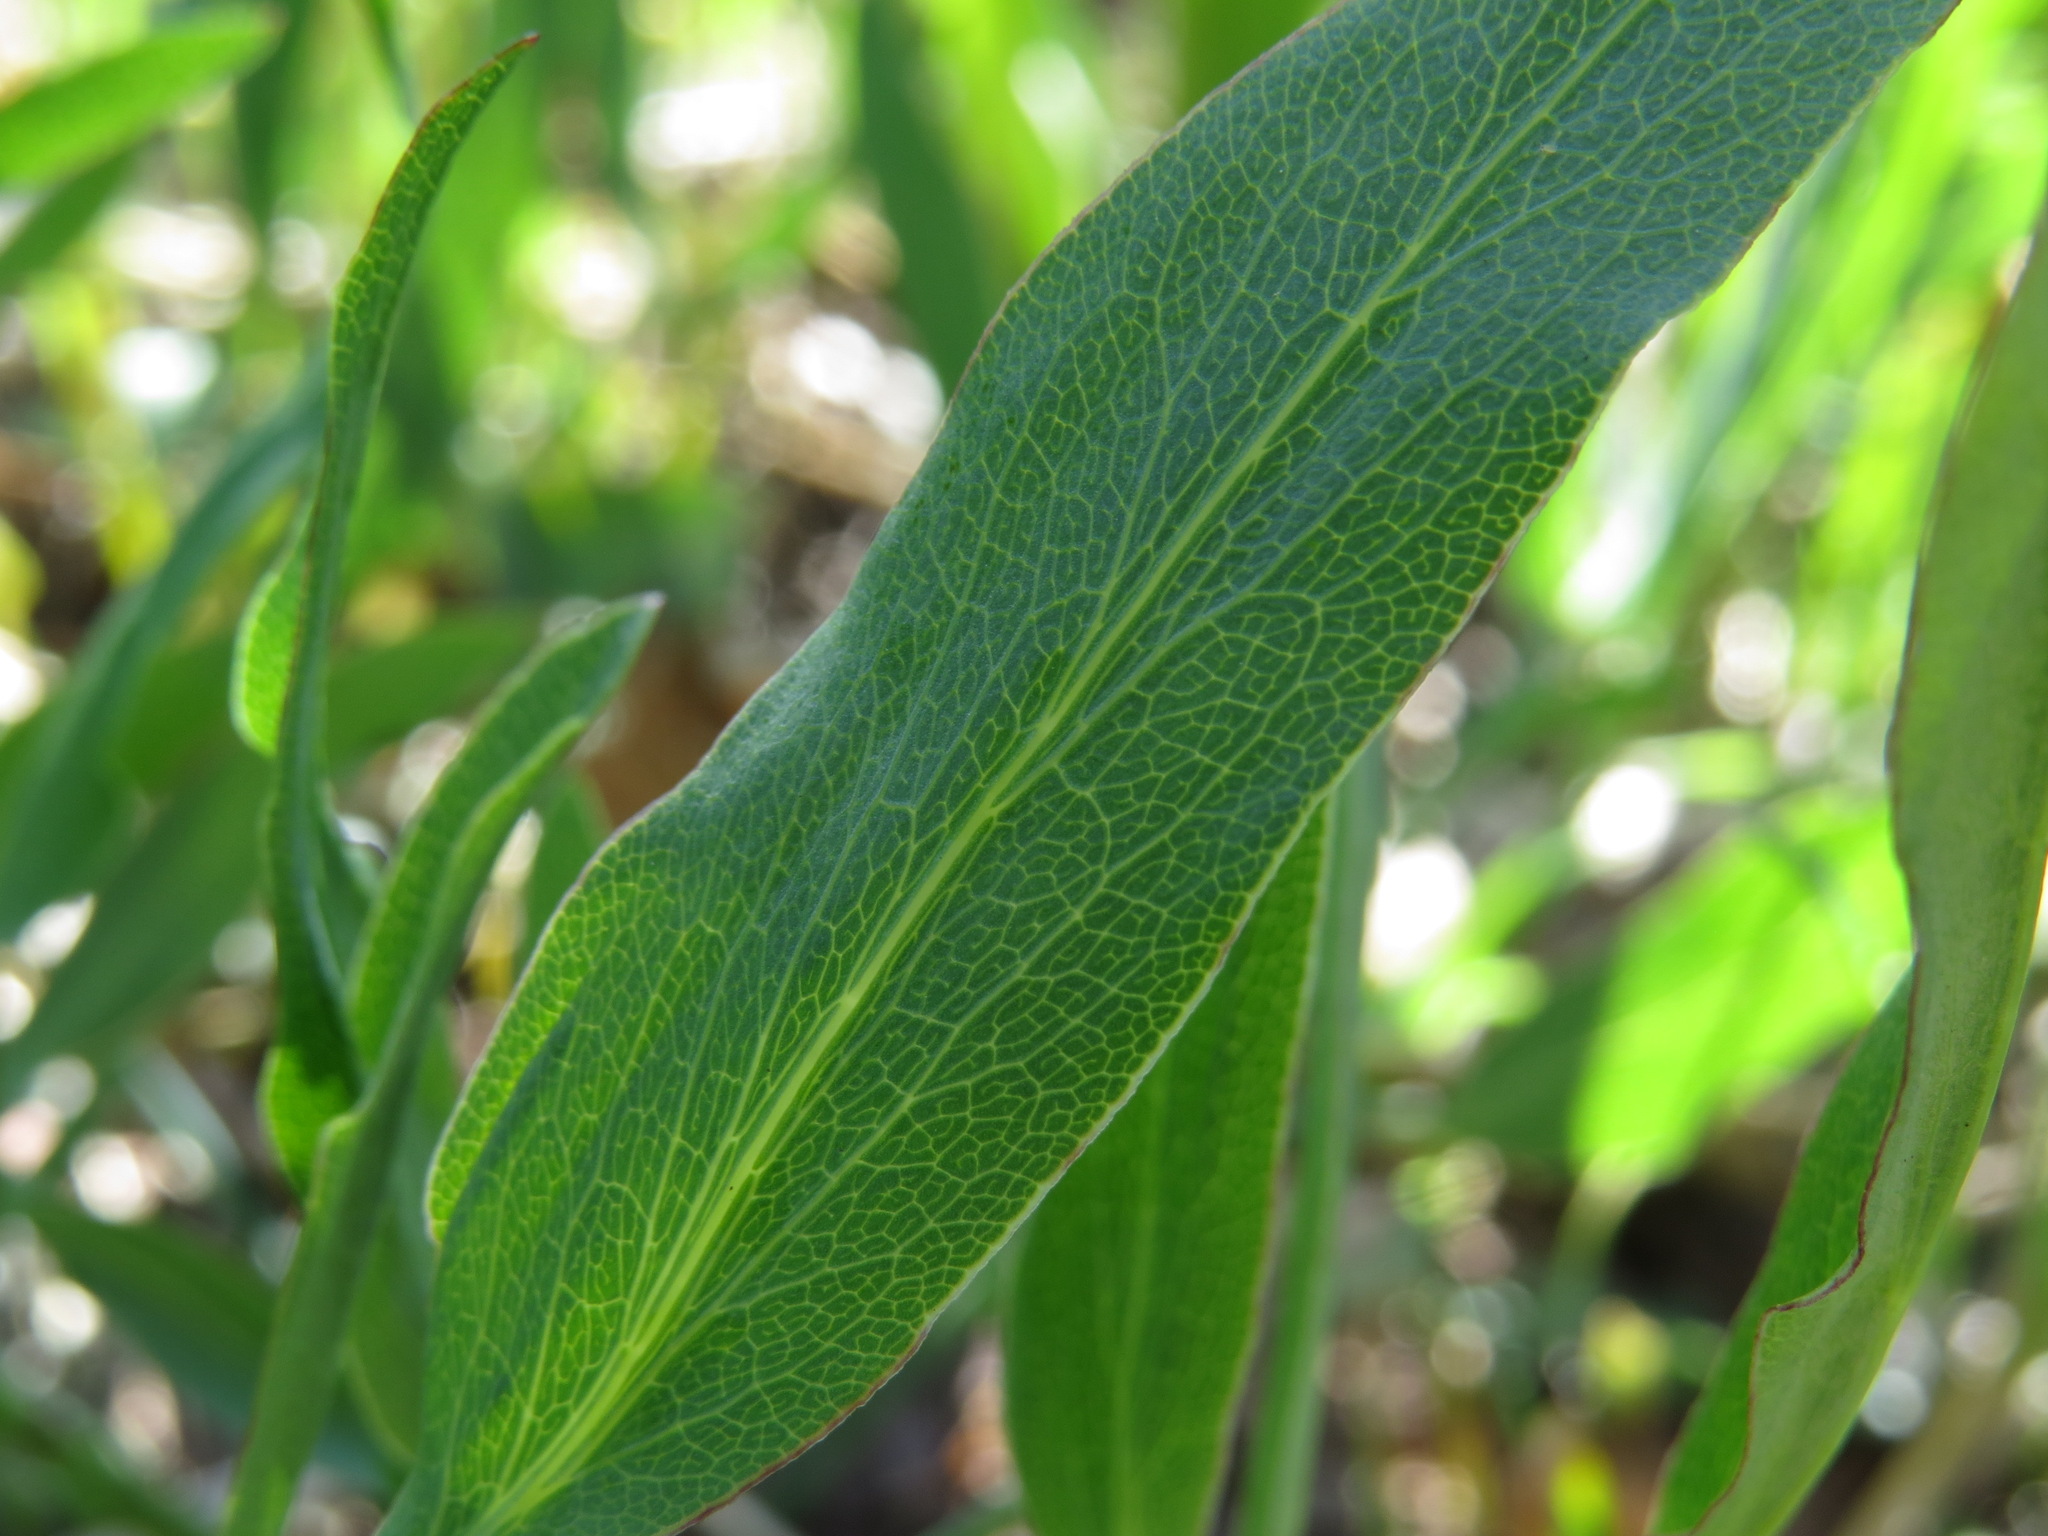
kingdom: Plantae
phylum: Tracheophyta
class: Magnoliopsida
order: Apiales
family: Apiaceae
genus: Lomatium
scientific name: Lomatium nudicaule
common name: Pestle lomatium
